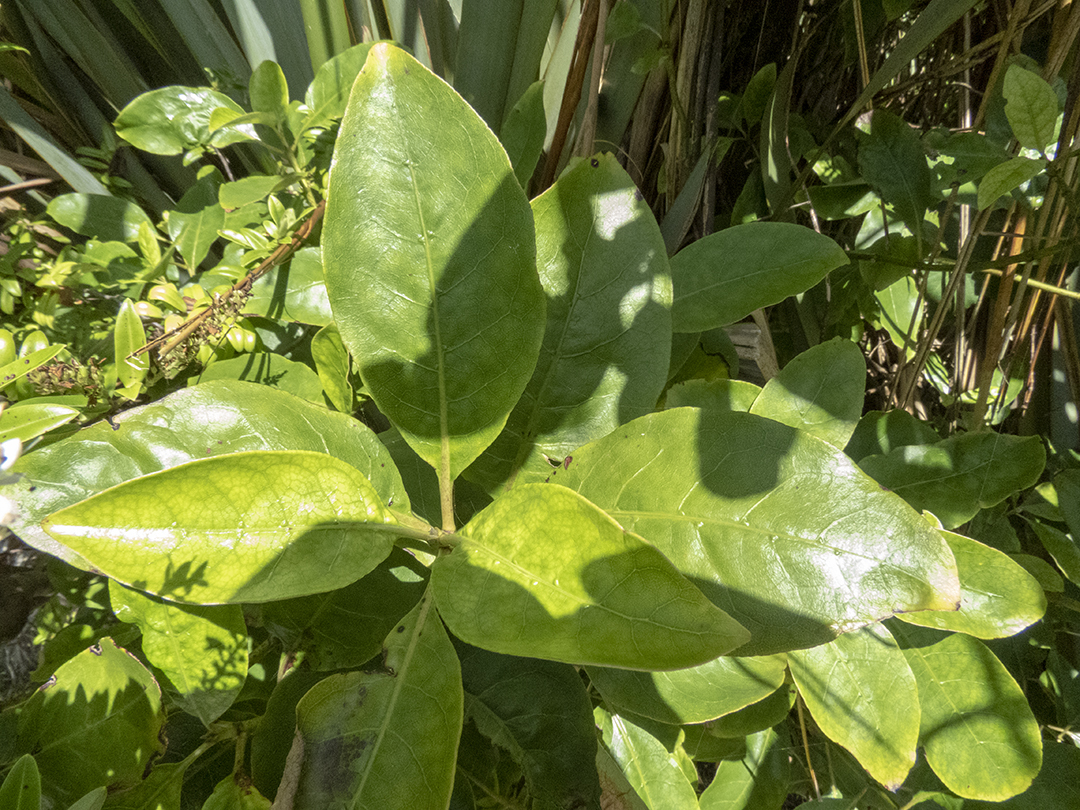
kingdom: Plantae
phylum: Tracheophyta
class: Magnoliopsida
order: Gentianales
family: Rubiaceae
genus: Coprosma
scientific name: Coprosma autumnalis
